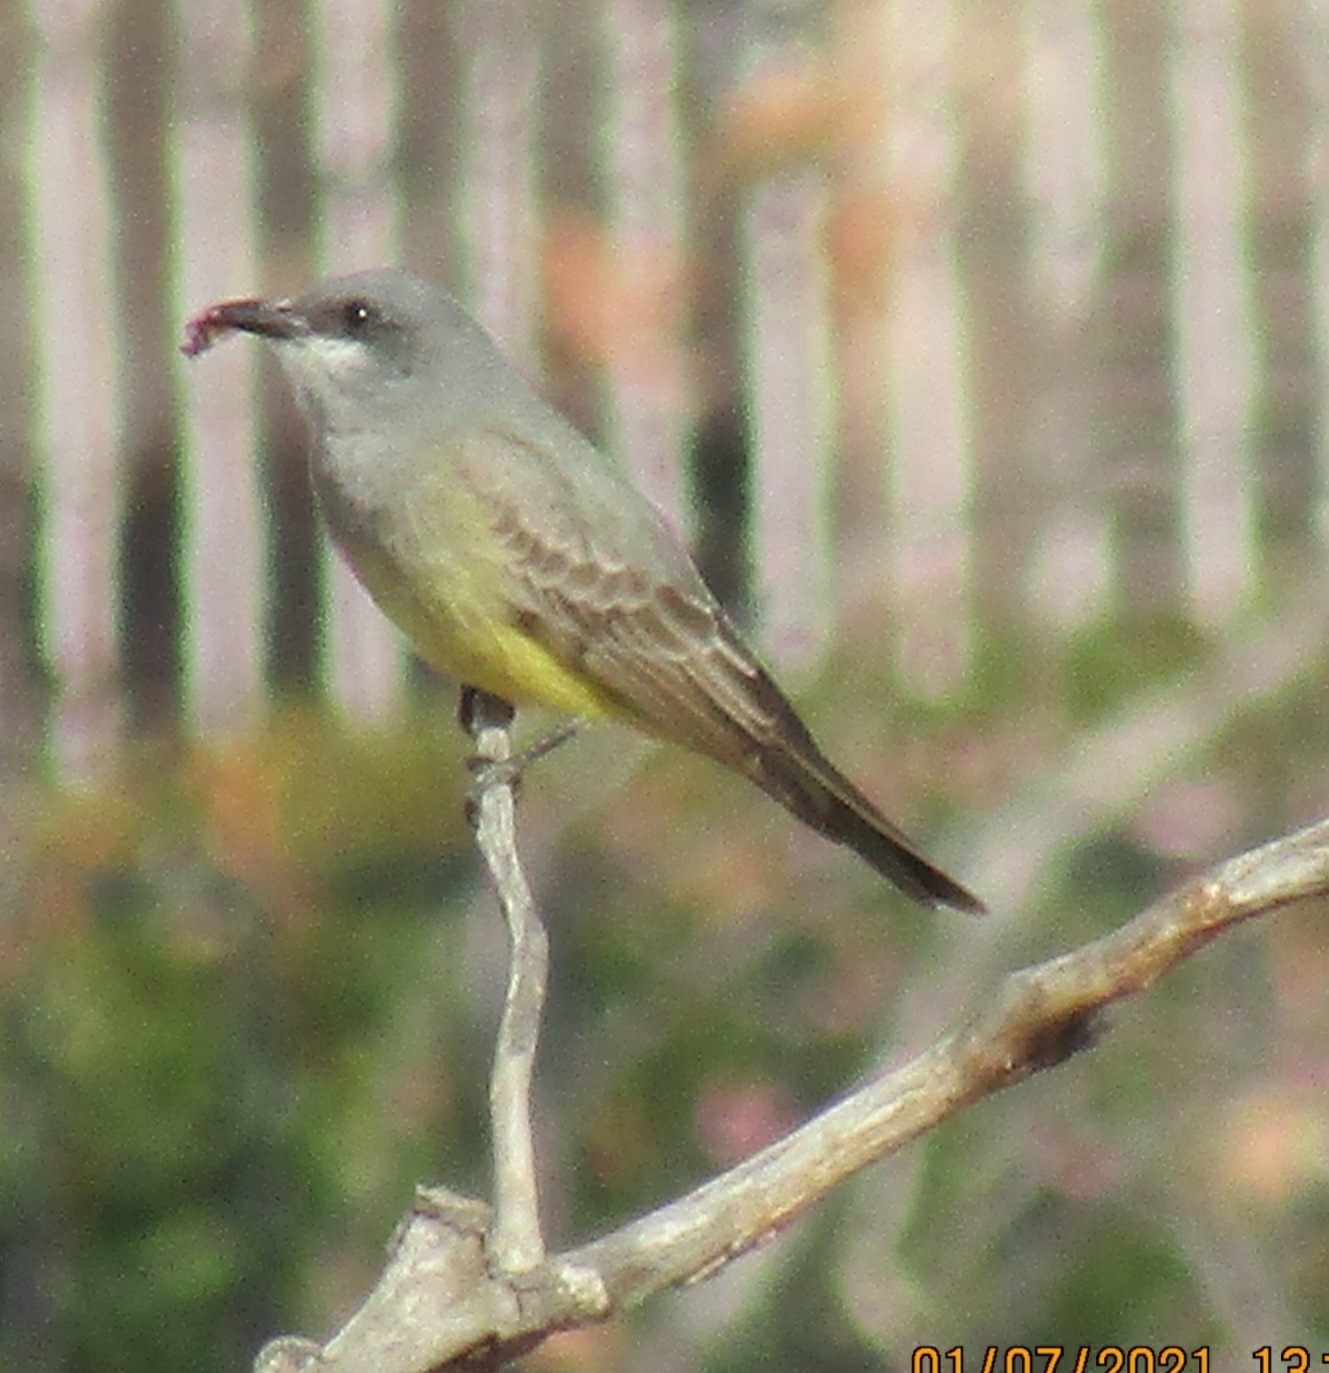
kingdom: Animalia
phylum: Chordata
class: Aves
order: Passeriformes
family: Tyrannidae
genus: Tyrannus
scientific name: Tyrannus vociferans
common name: Cassin's kingbird
